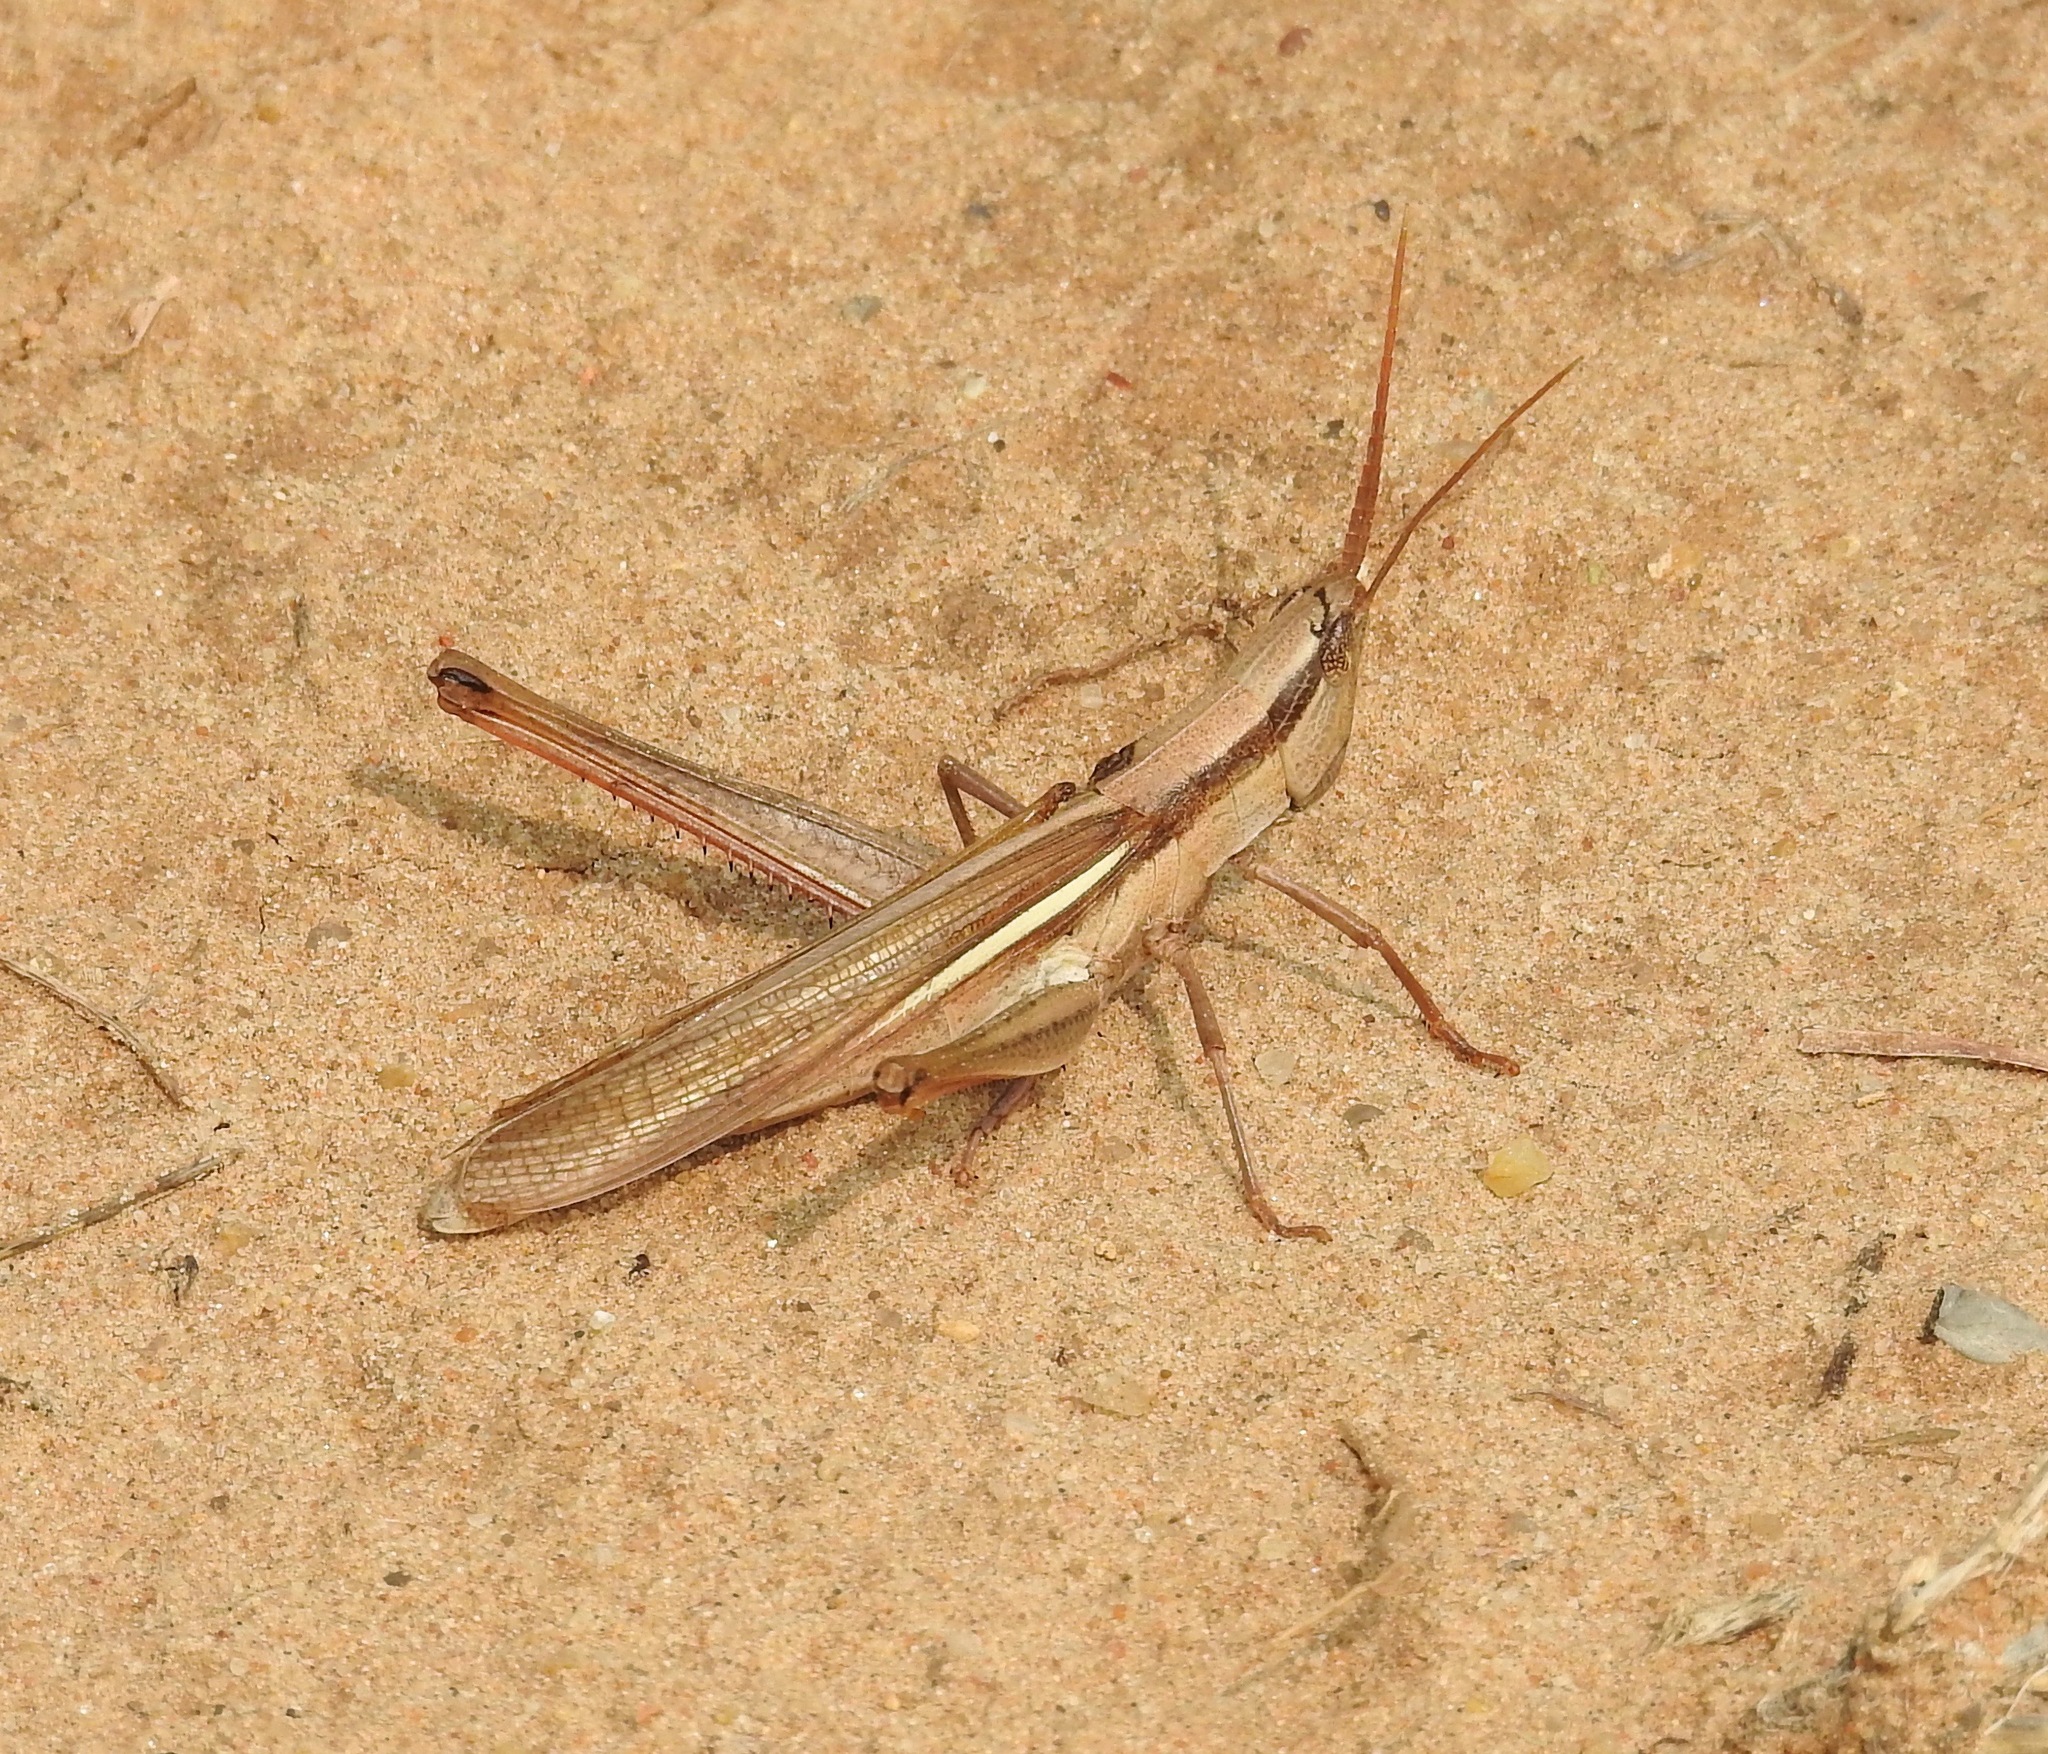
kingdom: Animalia
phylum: Arthropoda
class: Insecta
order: Orthoptera
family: Acrididae
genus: Mermiria
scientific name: Mermiria bivittata
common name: Two-striped mermiria grasshopper
